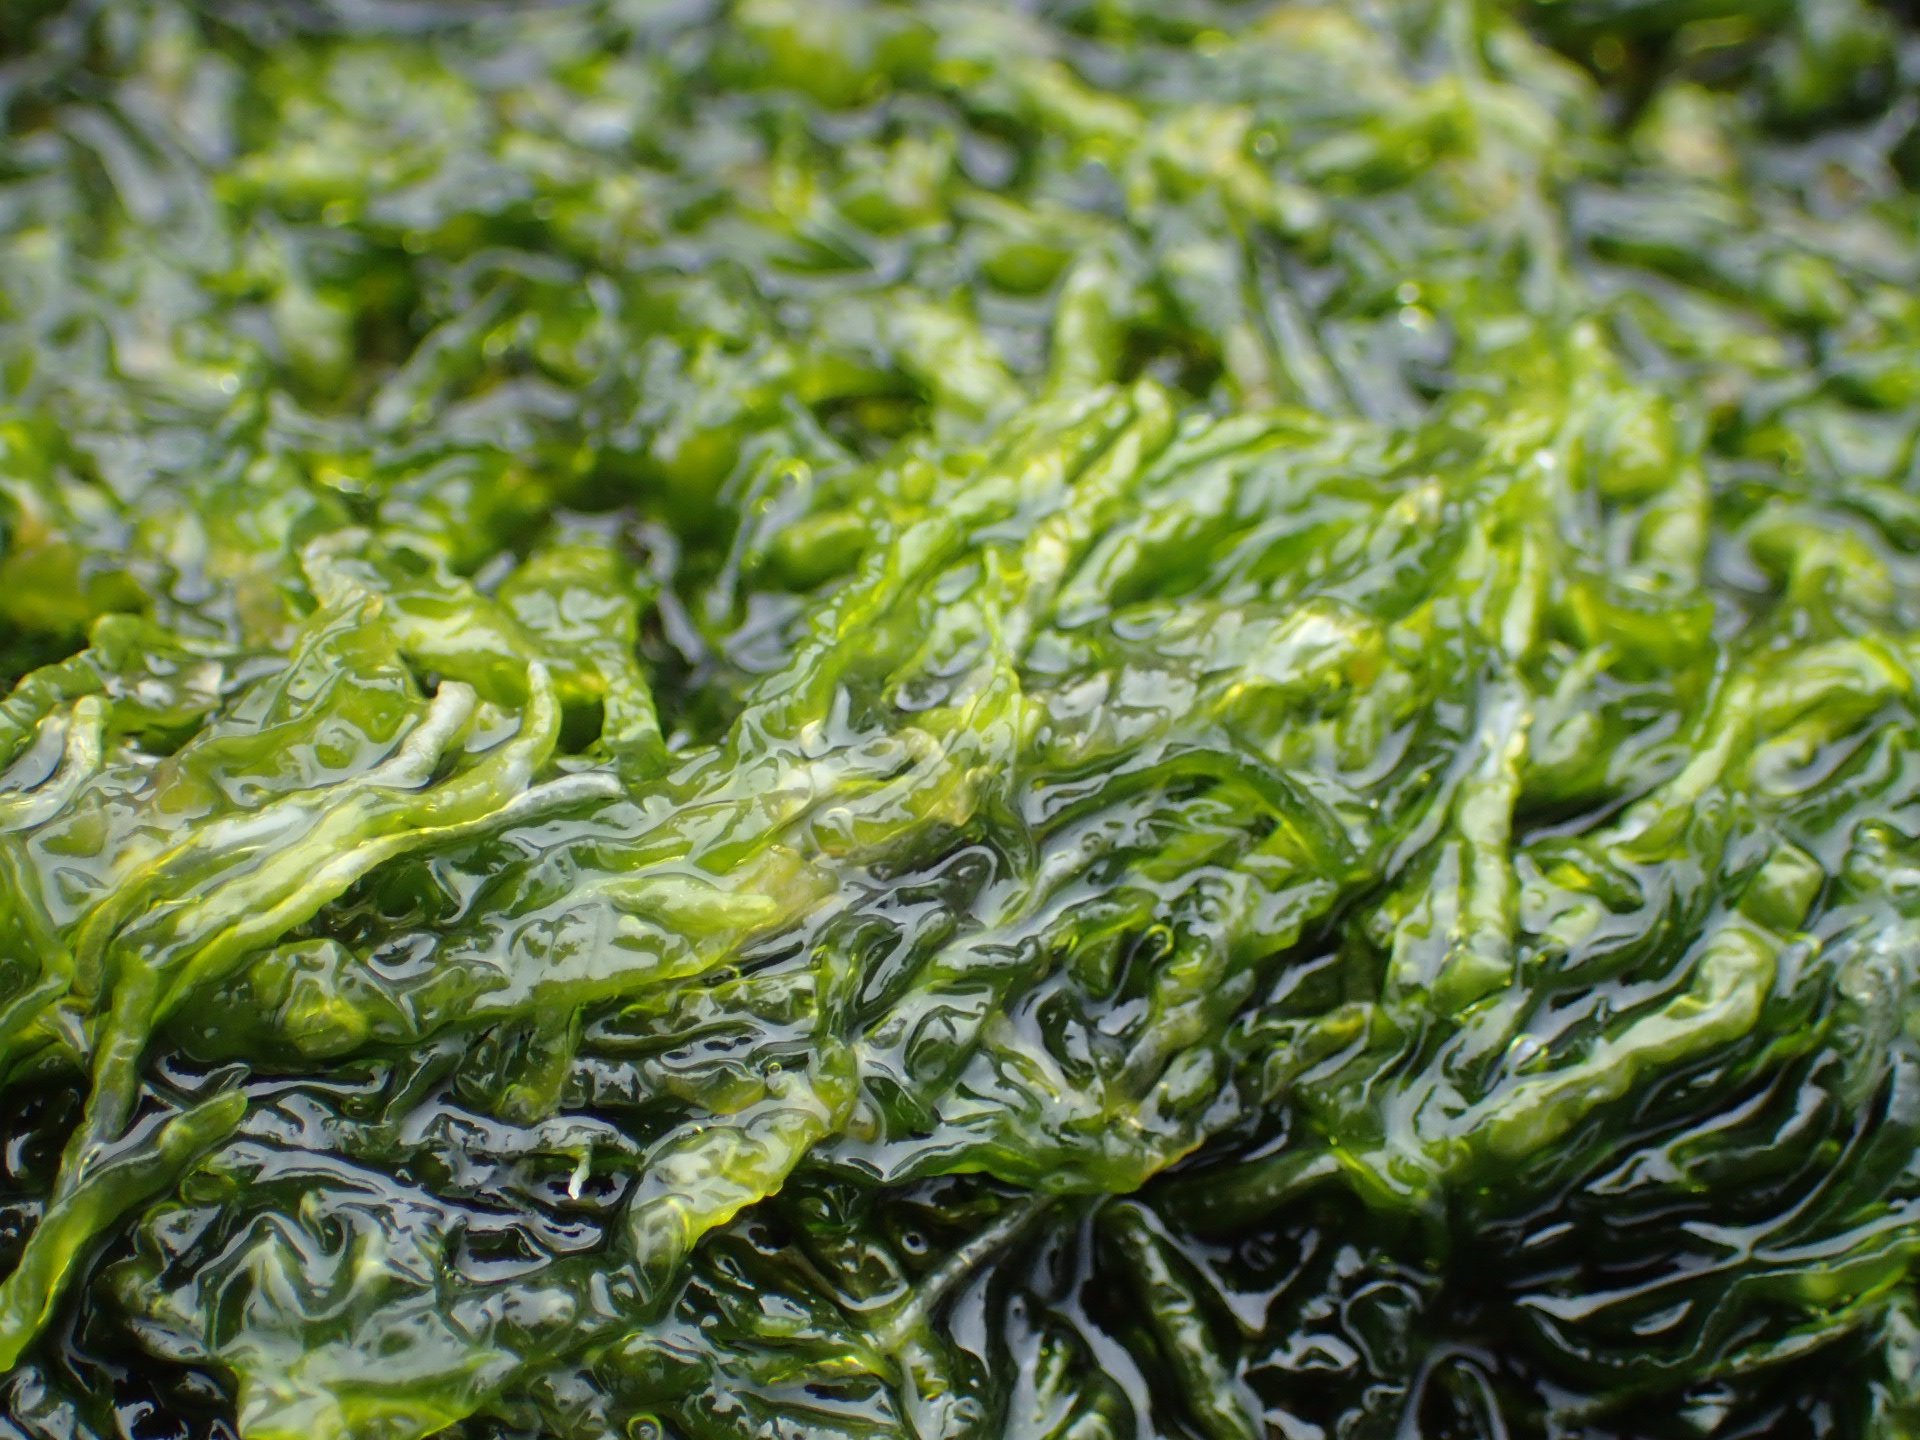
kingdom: Plantae
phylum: Chlorophyta
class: Ulvophyceae
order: Ulvales
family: Ulvaceae
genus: Ulva
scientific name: Ulva intestinalis
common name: Gut weed
